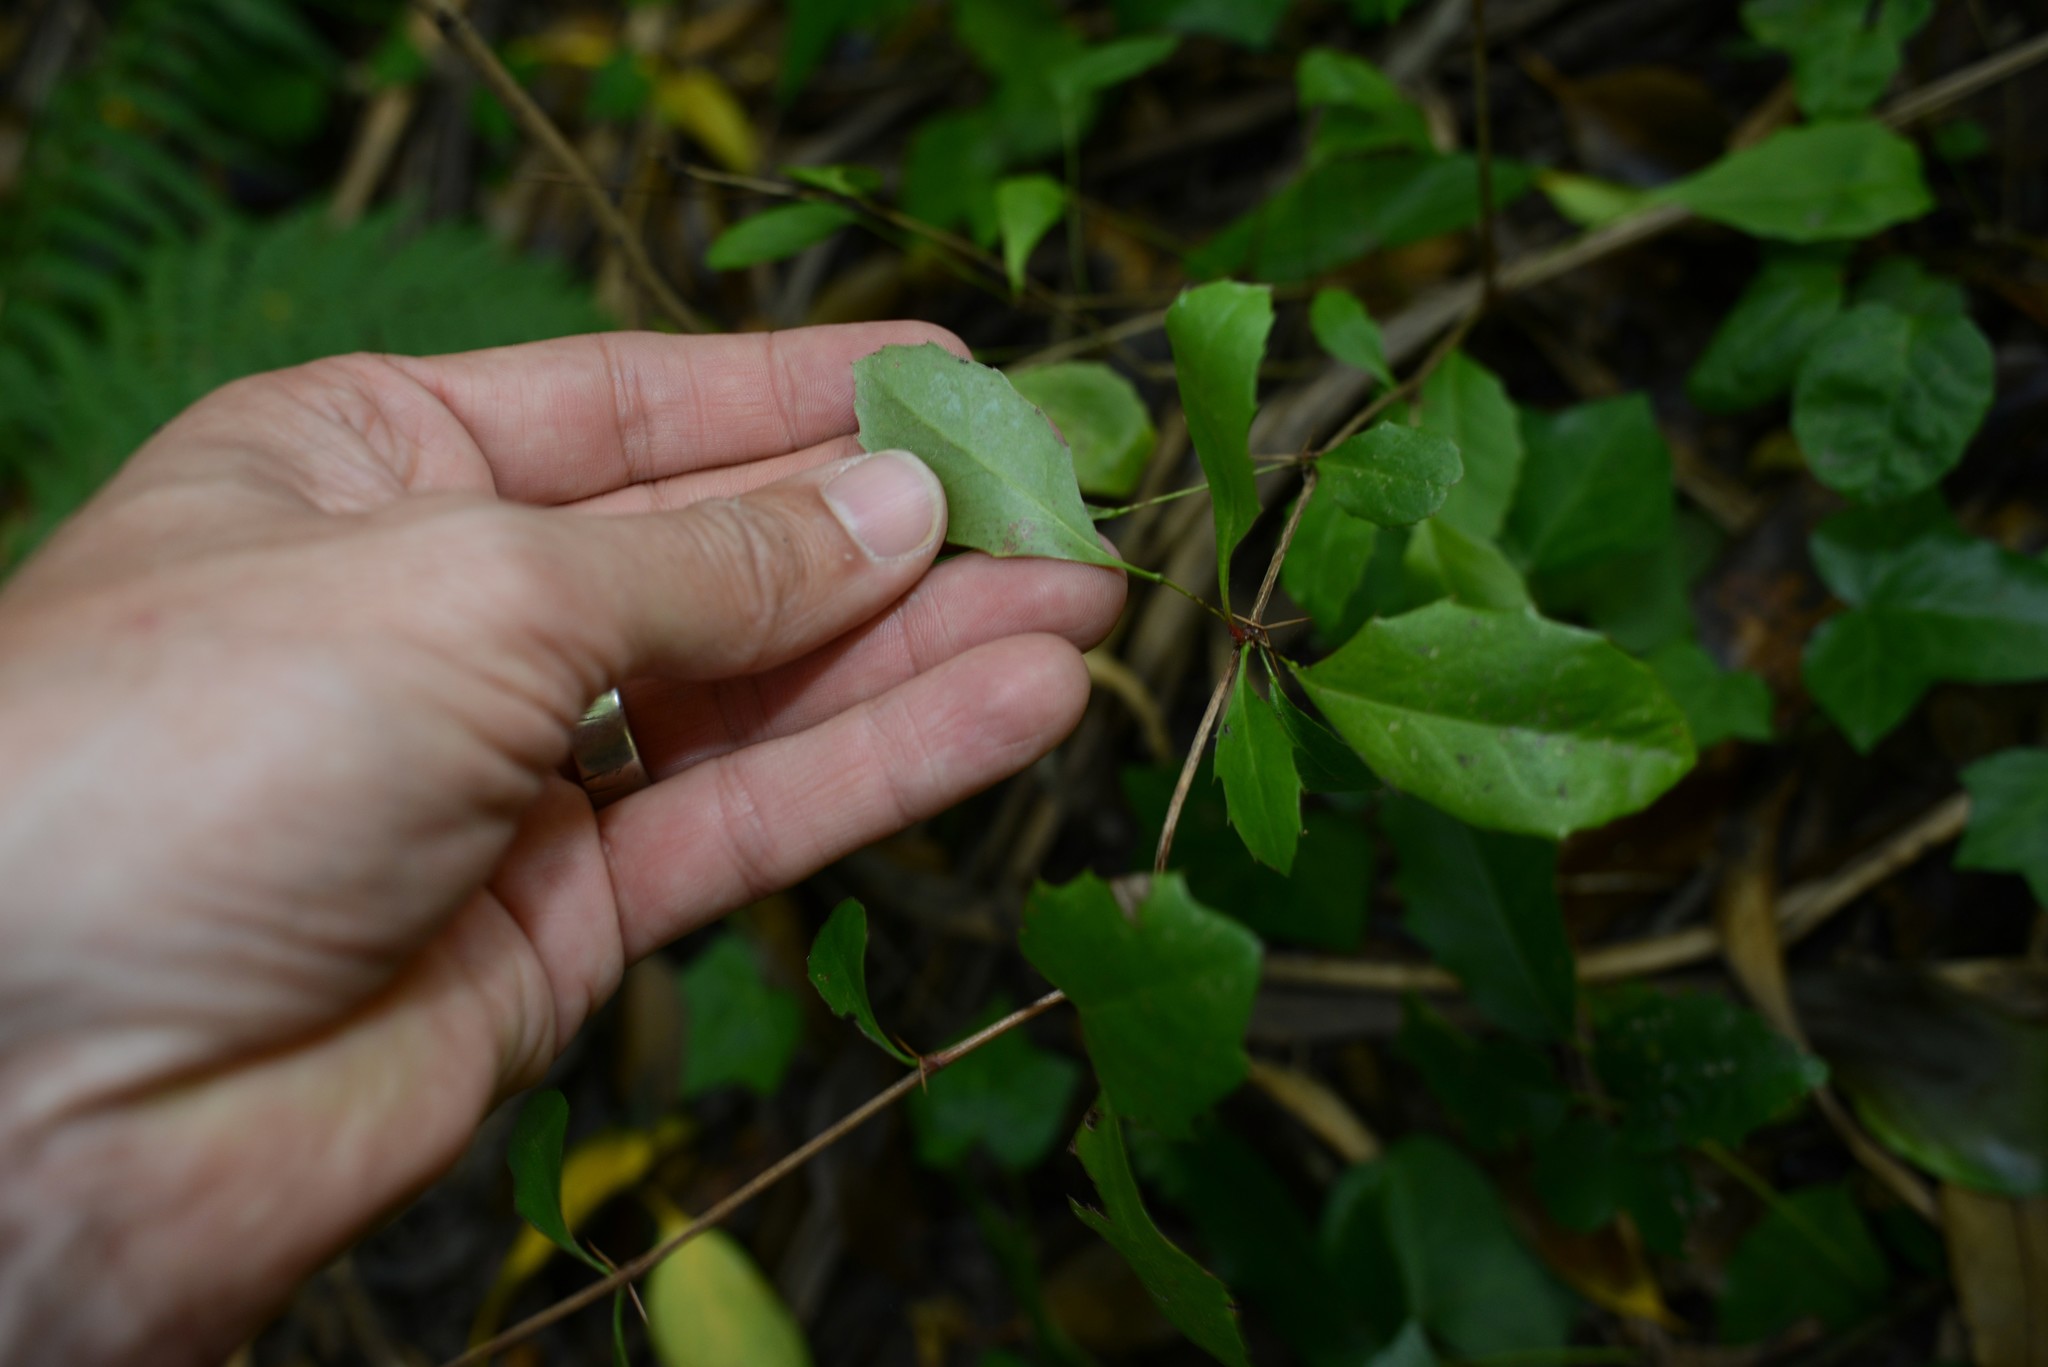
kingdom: Plantae
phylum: Tracheophyta
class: Magnoliopsida
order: Ranunculales
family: Berberidaceae
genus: Berberis
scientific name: Berberis glaucocarpa
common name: Great barberry
